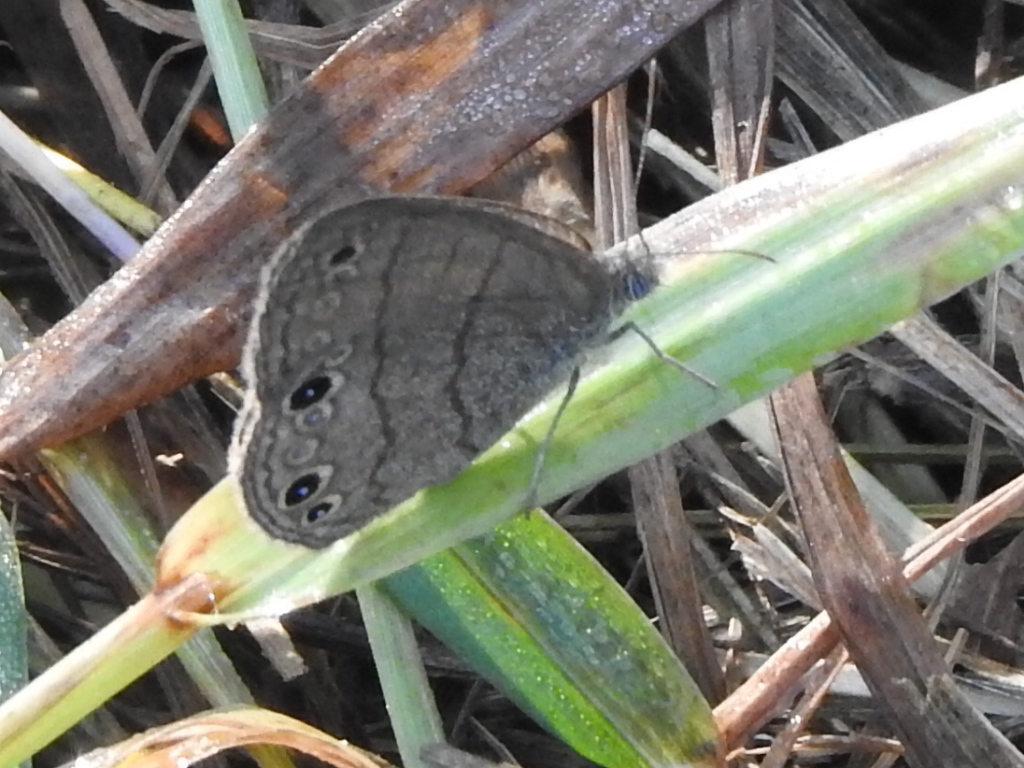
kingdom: Animalia
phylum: Arthropoda
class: Insecta
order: Lepidoptera
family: Nymphalidae
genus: Hermeuptychia
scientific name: Hermeuptychia hermes
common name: Hermes satyr
